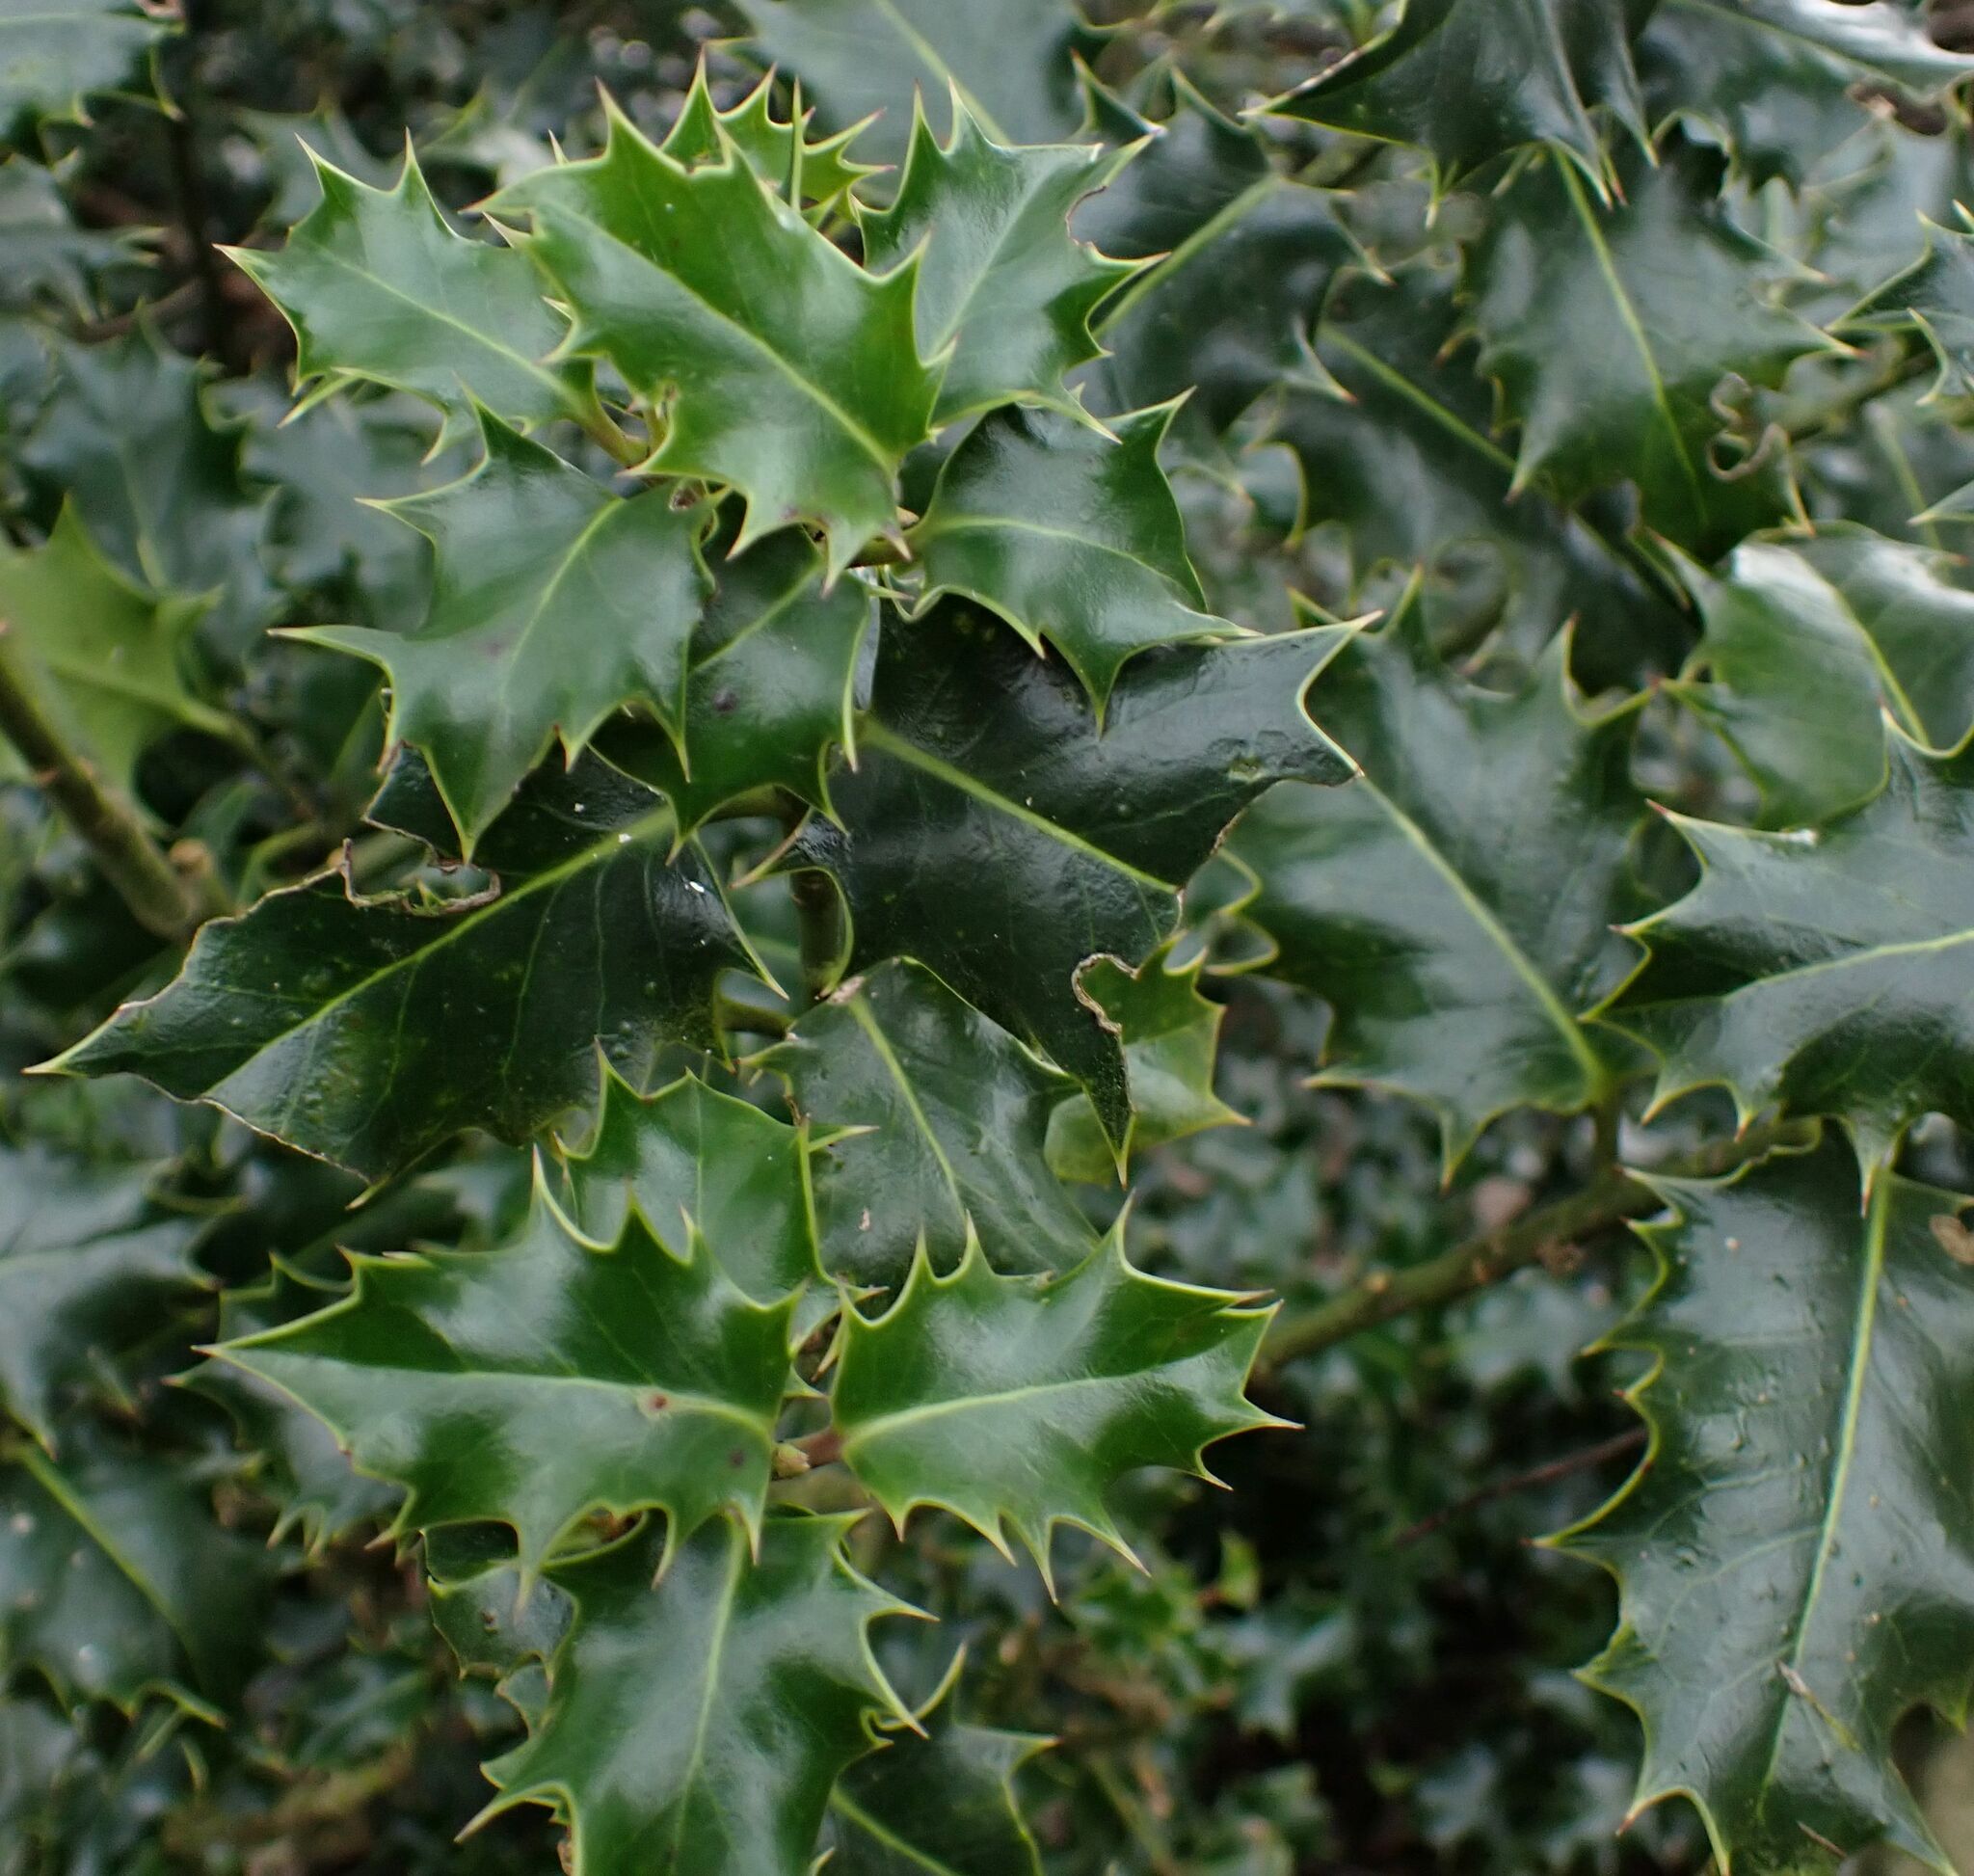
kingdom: Plantae
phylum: Tracheophyta
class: Magnoliopsida
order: Aquifoliales
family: Aquifoliaceae
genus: Ilex
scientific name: Ilex aquifolium
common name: English holly
